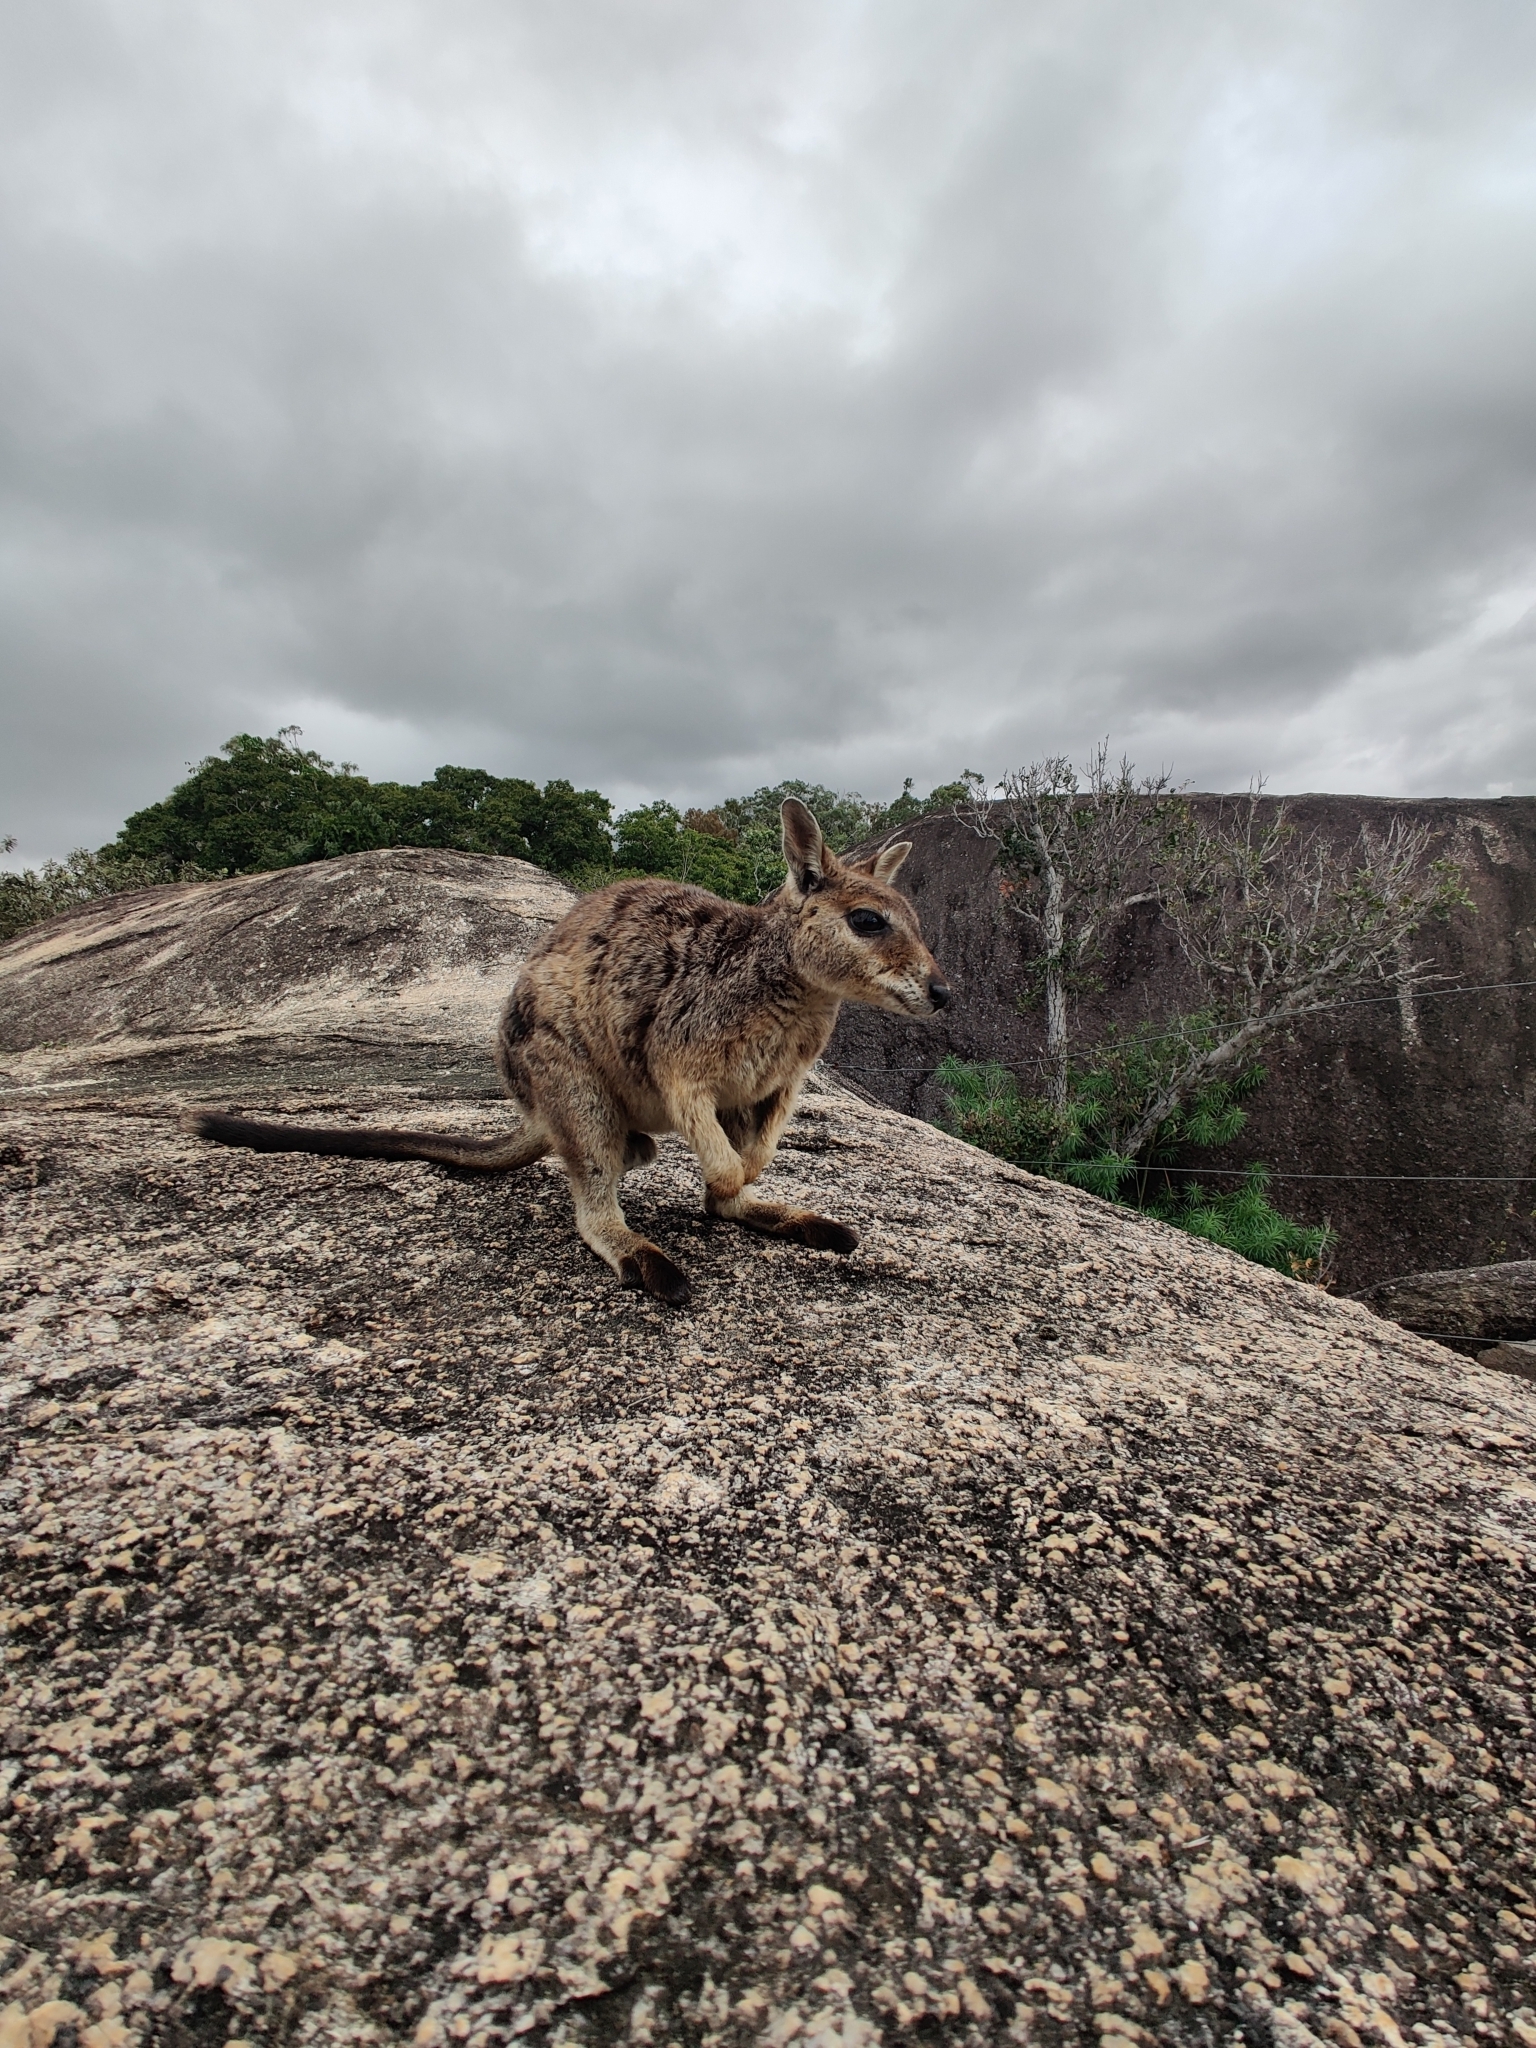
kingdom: Animalia
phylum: Chordata
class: Mammalia
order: Diprotodontia
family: Macropodidae
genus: Petrogale
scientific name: Petrogale mareeba
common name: Mareeba rock-wallaby
